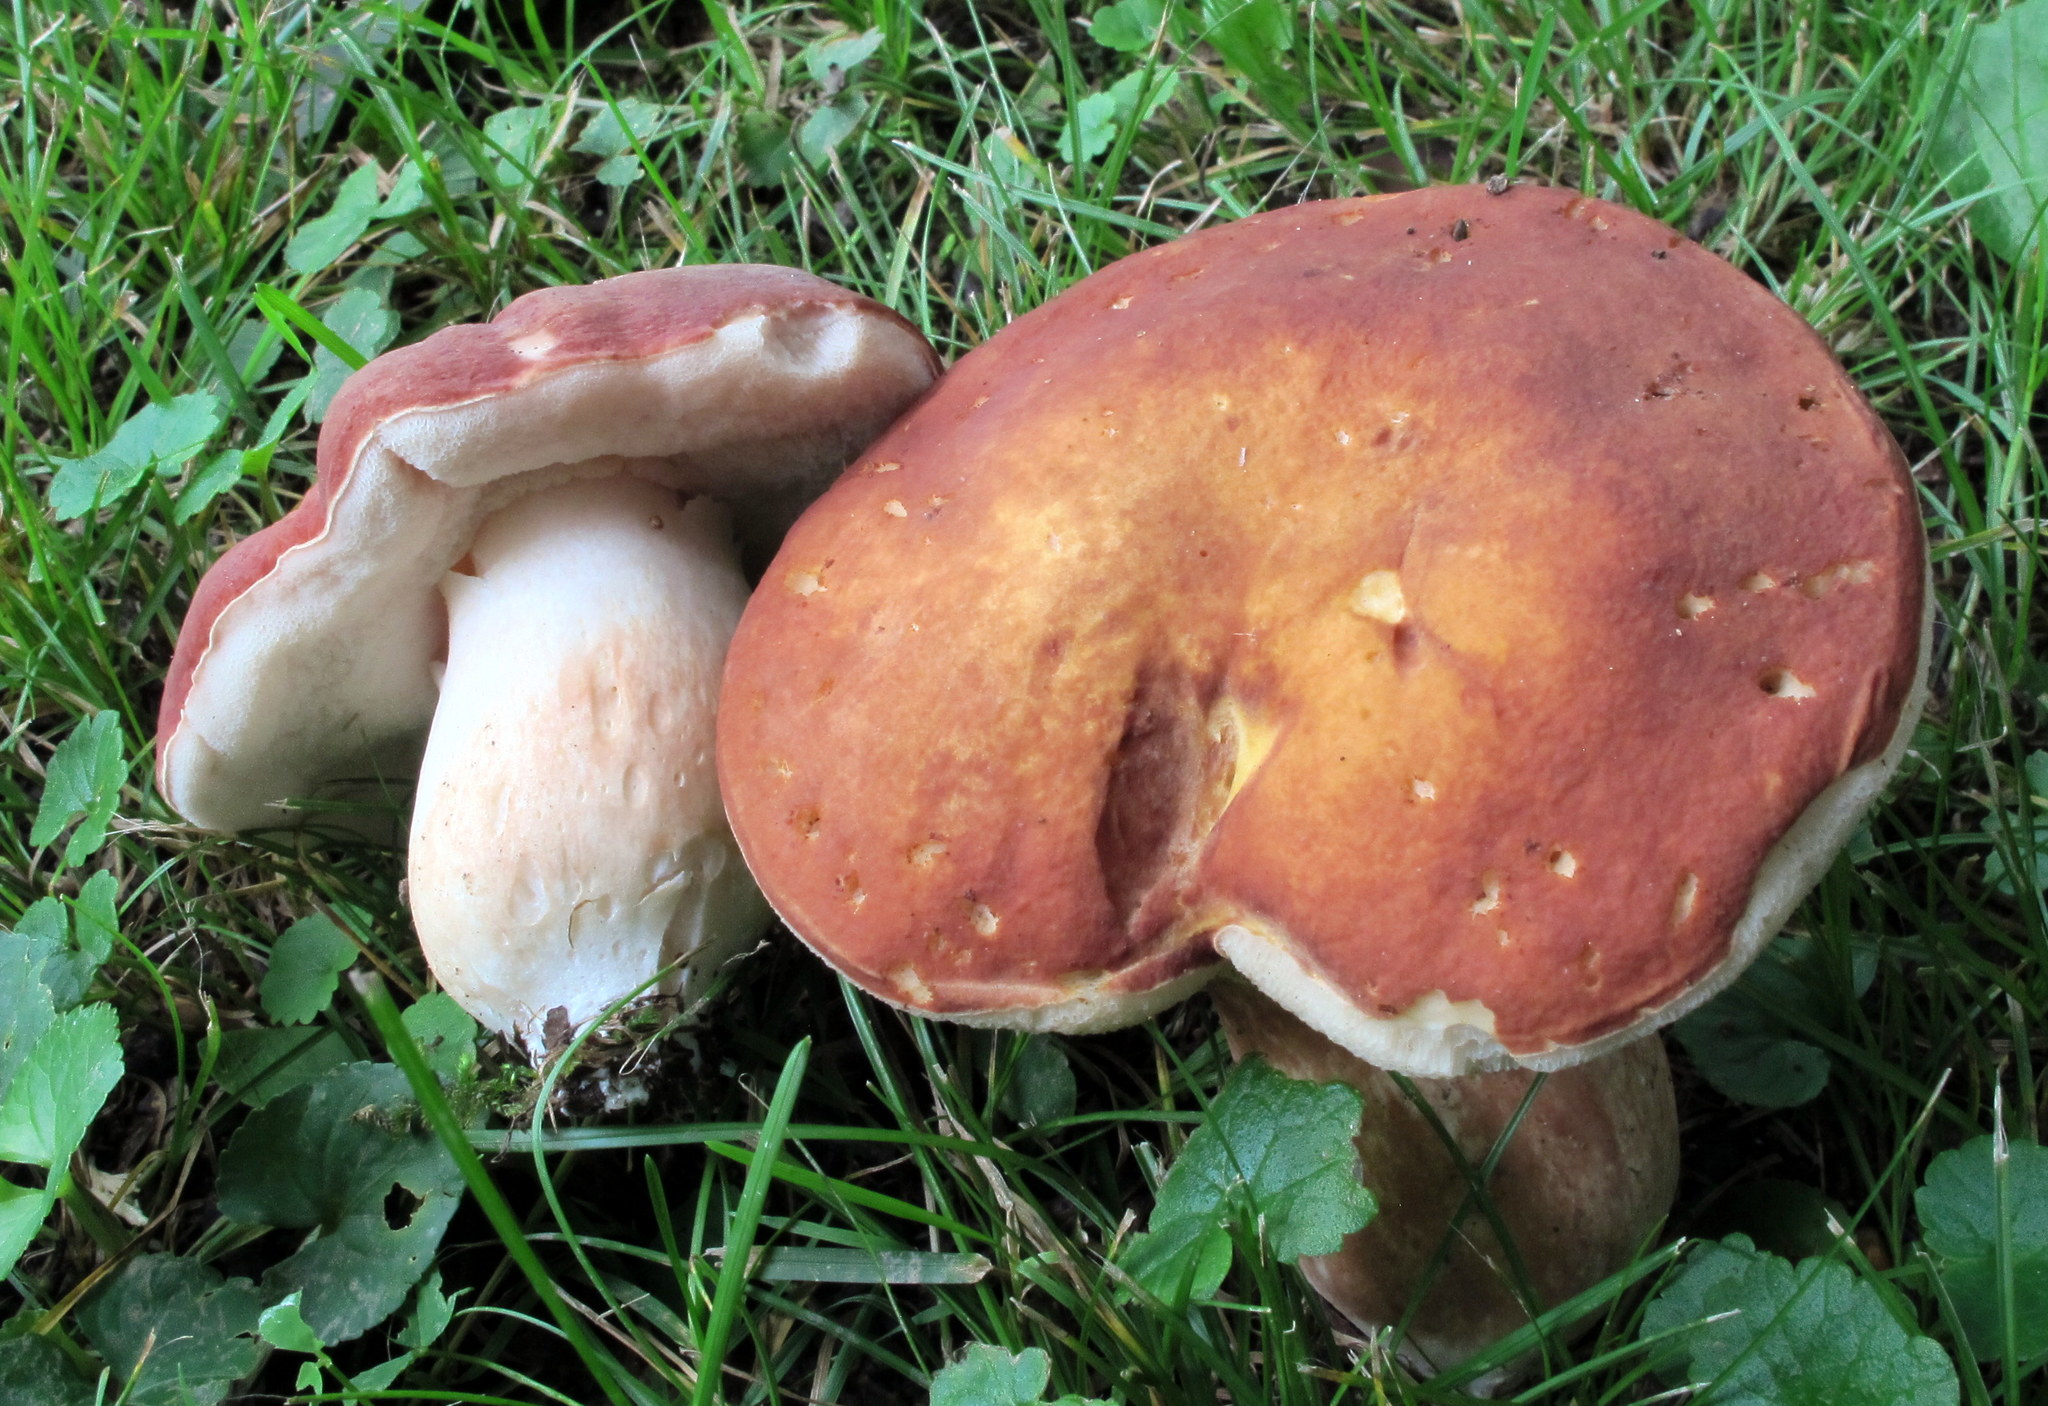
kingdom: Fungi
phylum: Basidiomycota
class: Agaricomycetes
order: Boletales
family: Boletaceae
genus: Xanthoconium
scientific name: Xanthoconium purpureum
